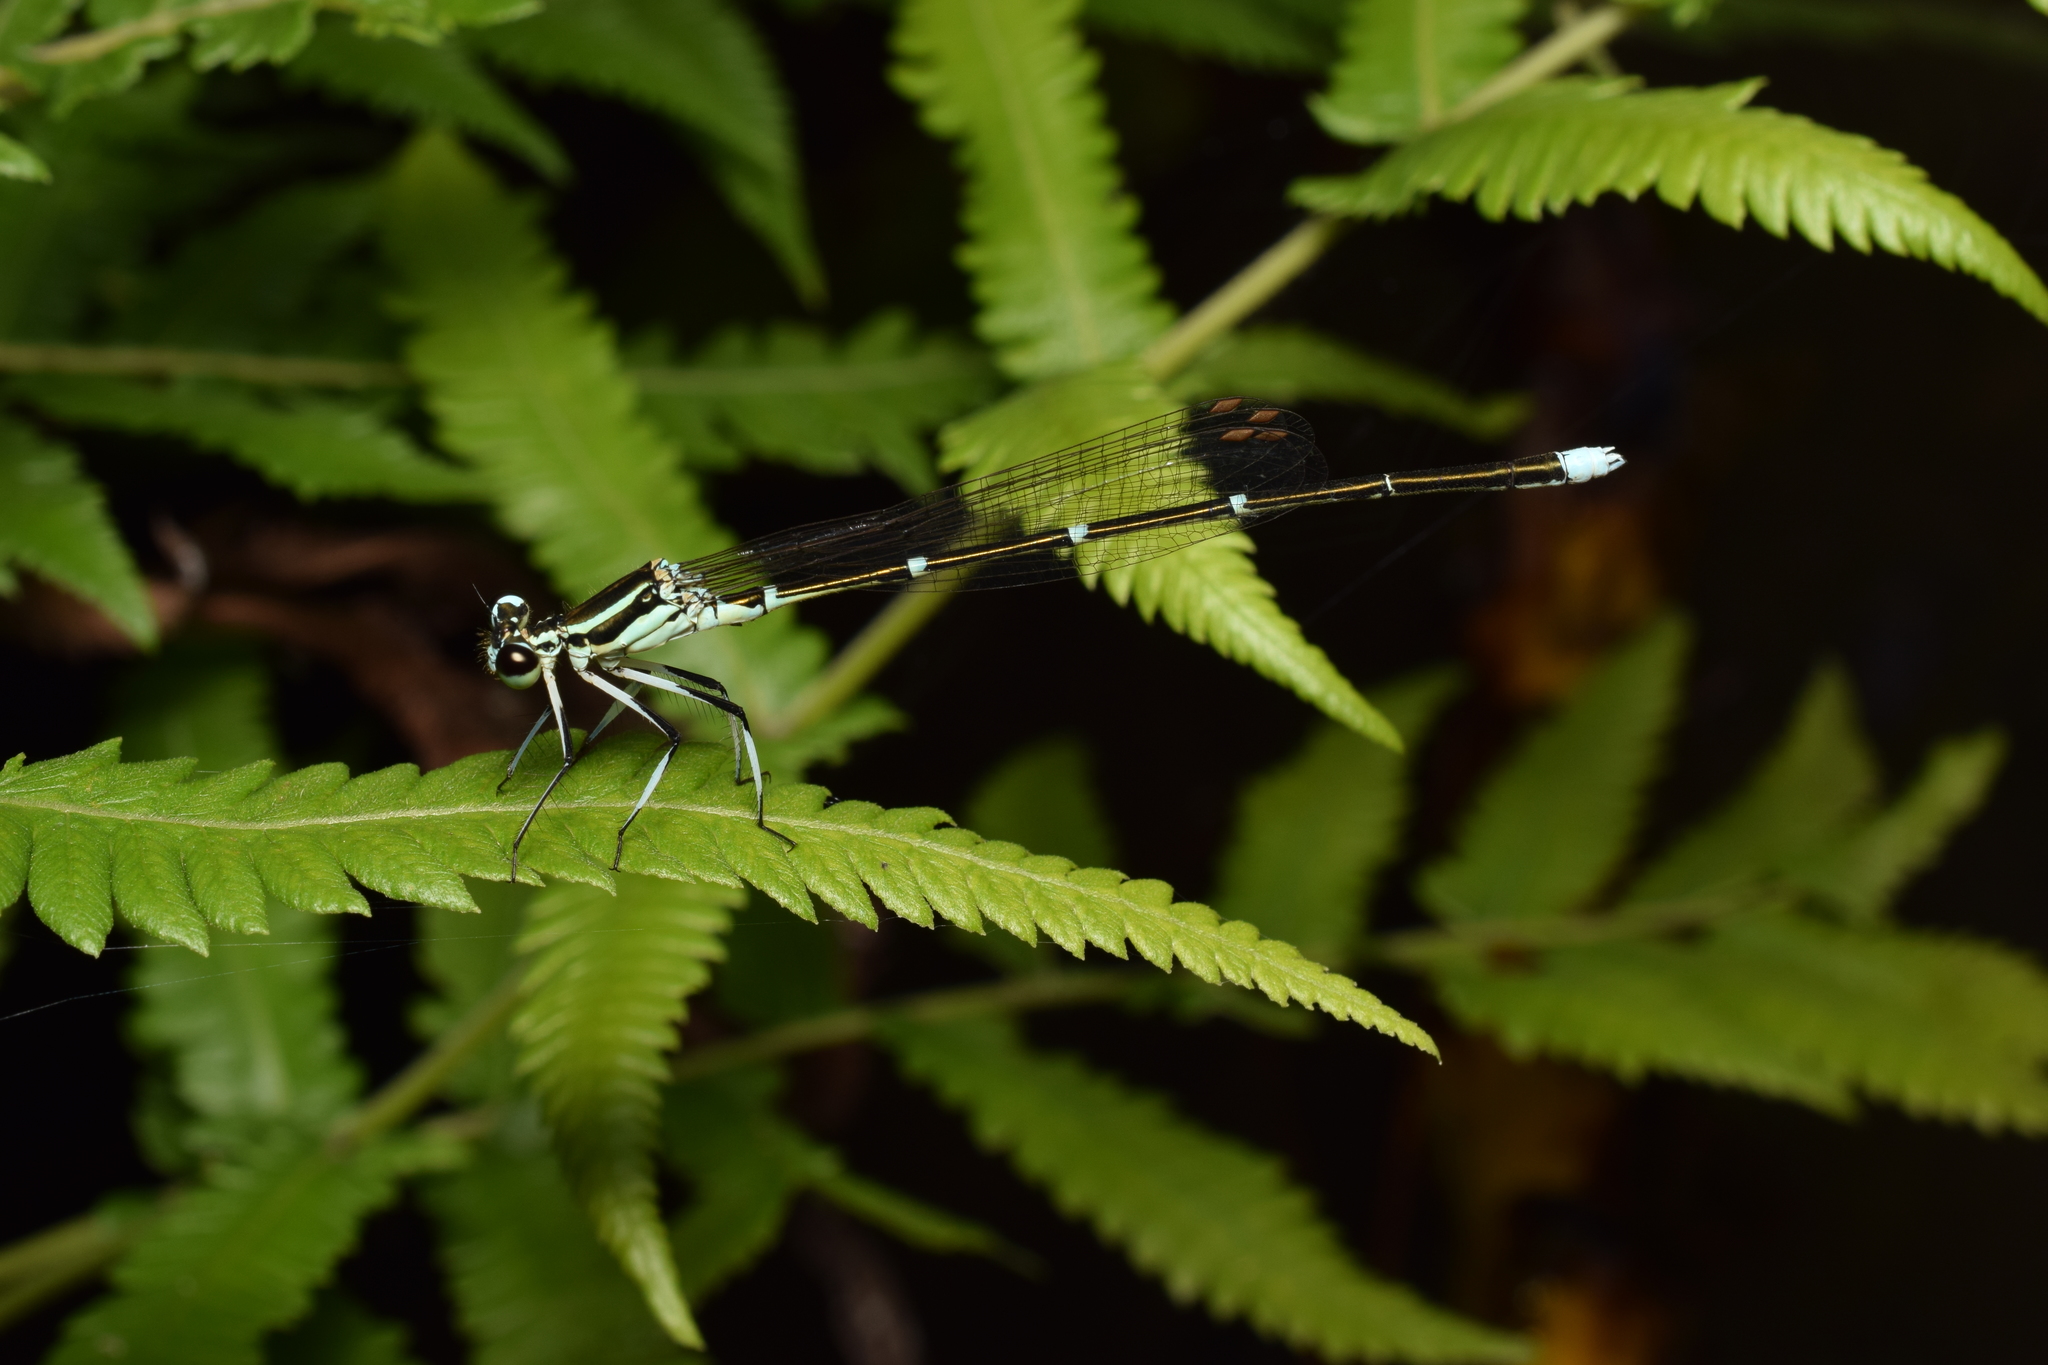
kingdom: Animalia
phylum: Arthropoda
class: Insecta
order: Odonata
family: Platycnemididae
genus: Pseudocopera
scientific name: Pseudocopera annulata
